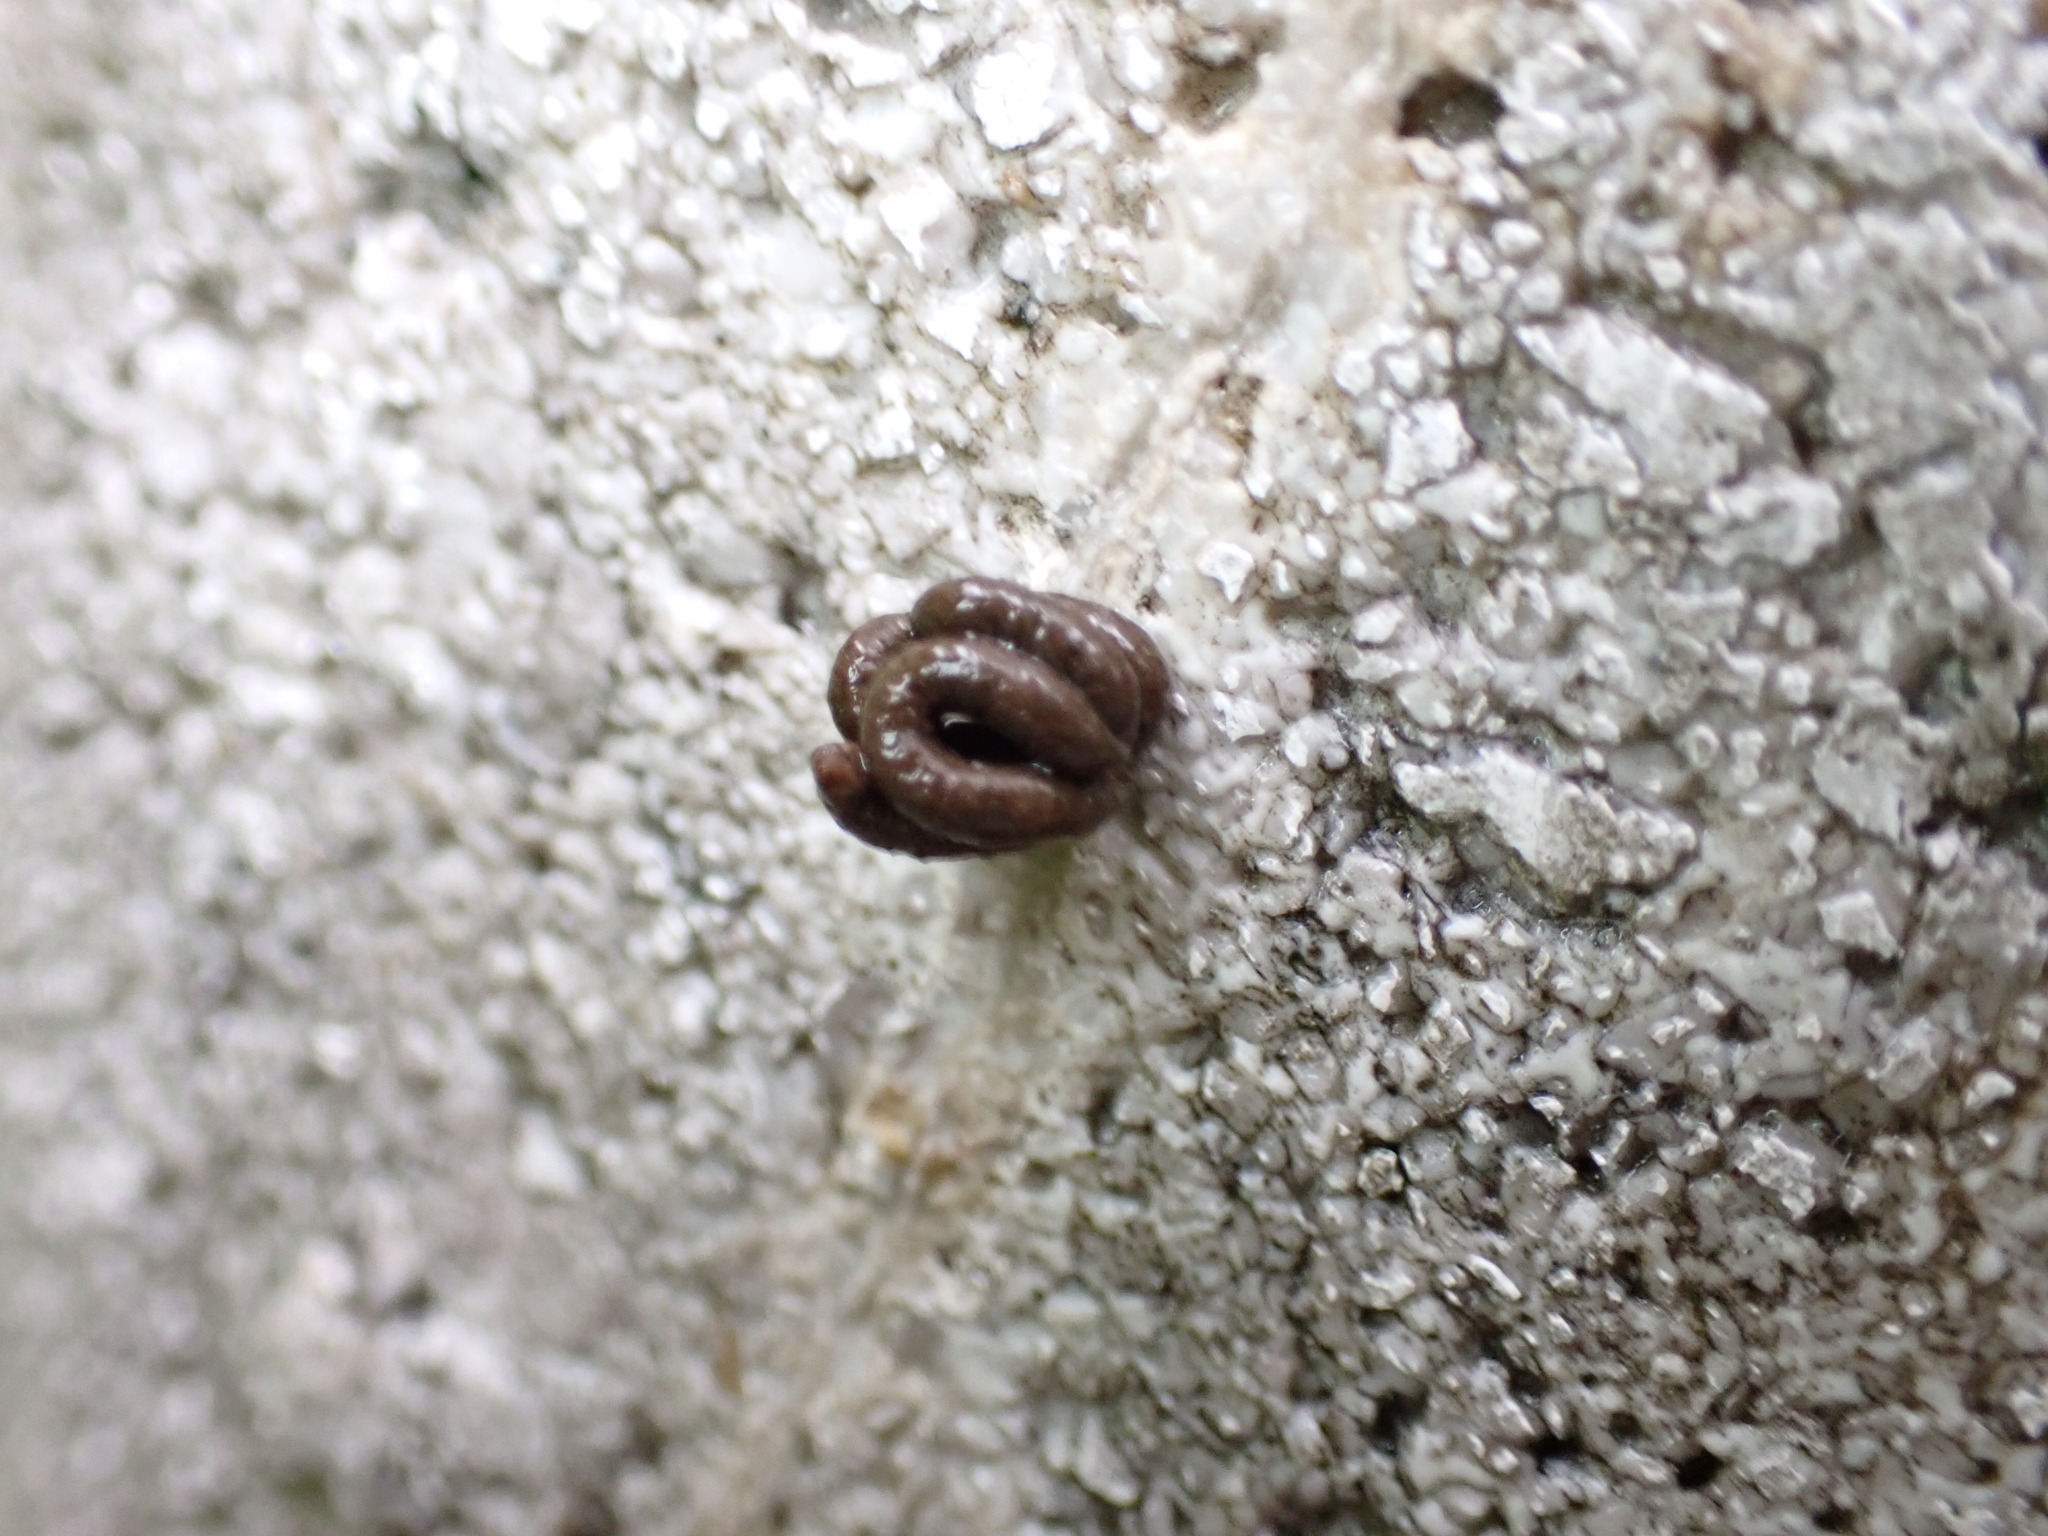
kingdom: Animalia
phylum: Mollusca
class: Gastropoda
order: Stylommatophora
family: Camaenidae
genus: Euhadra
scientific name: Euhadra herklotsi
